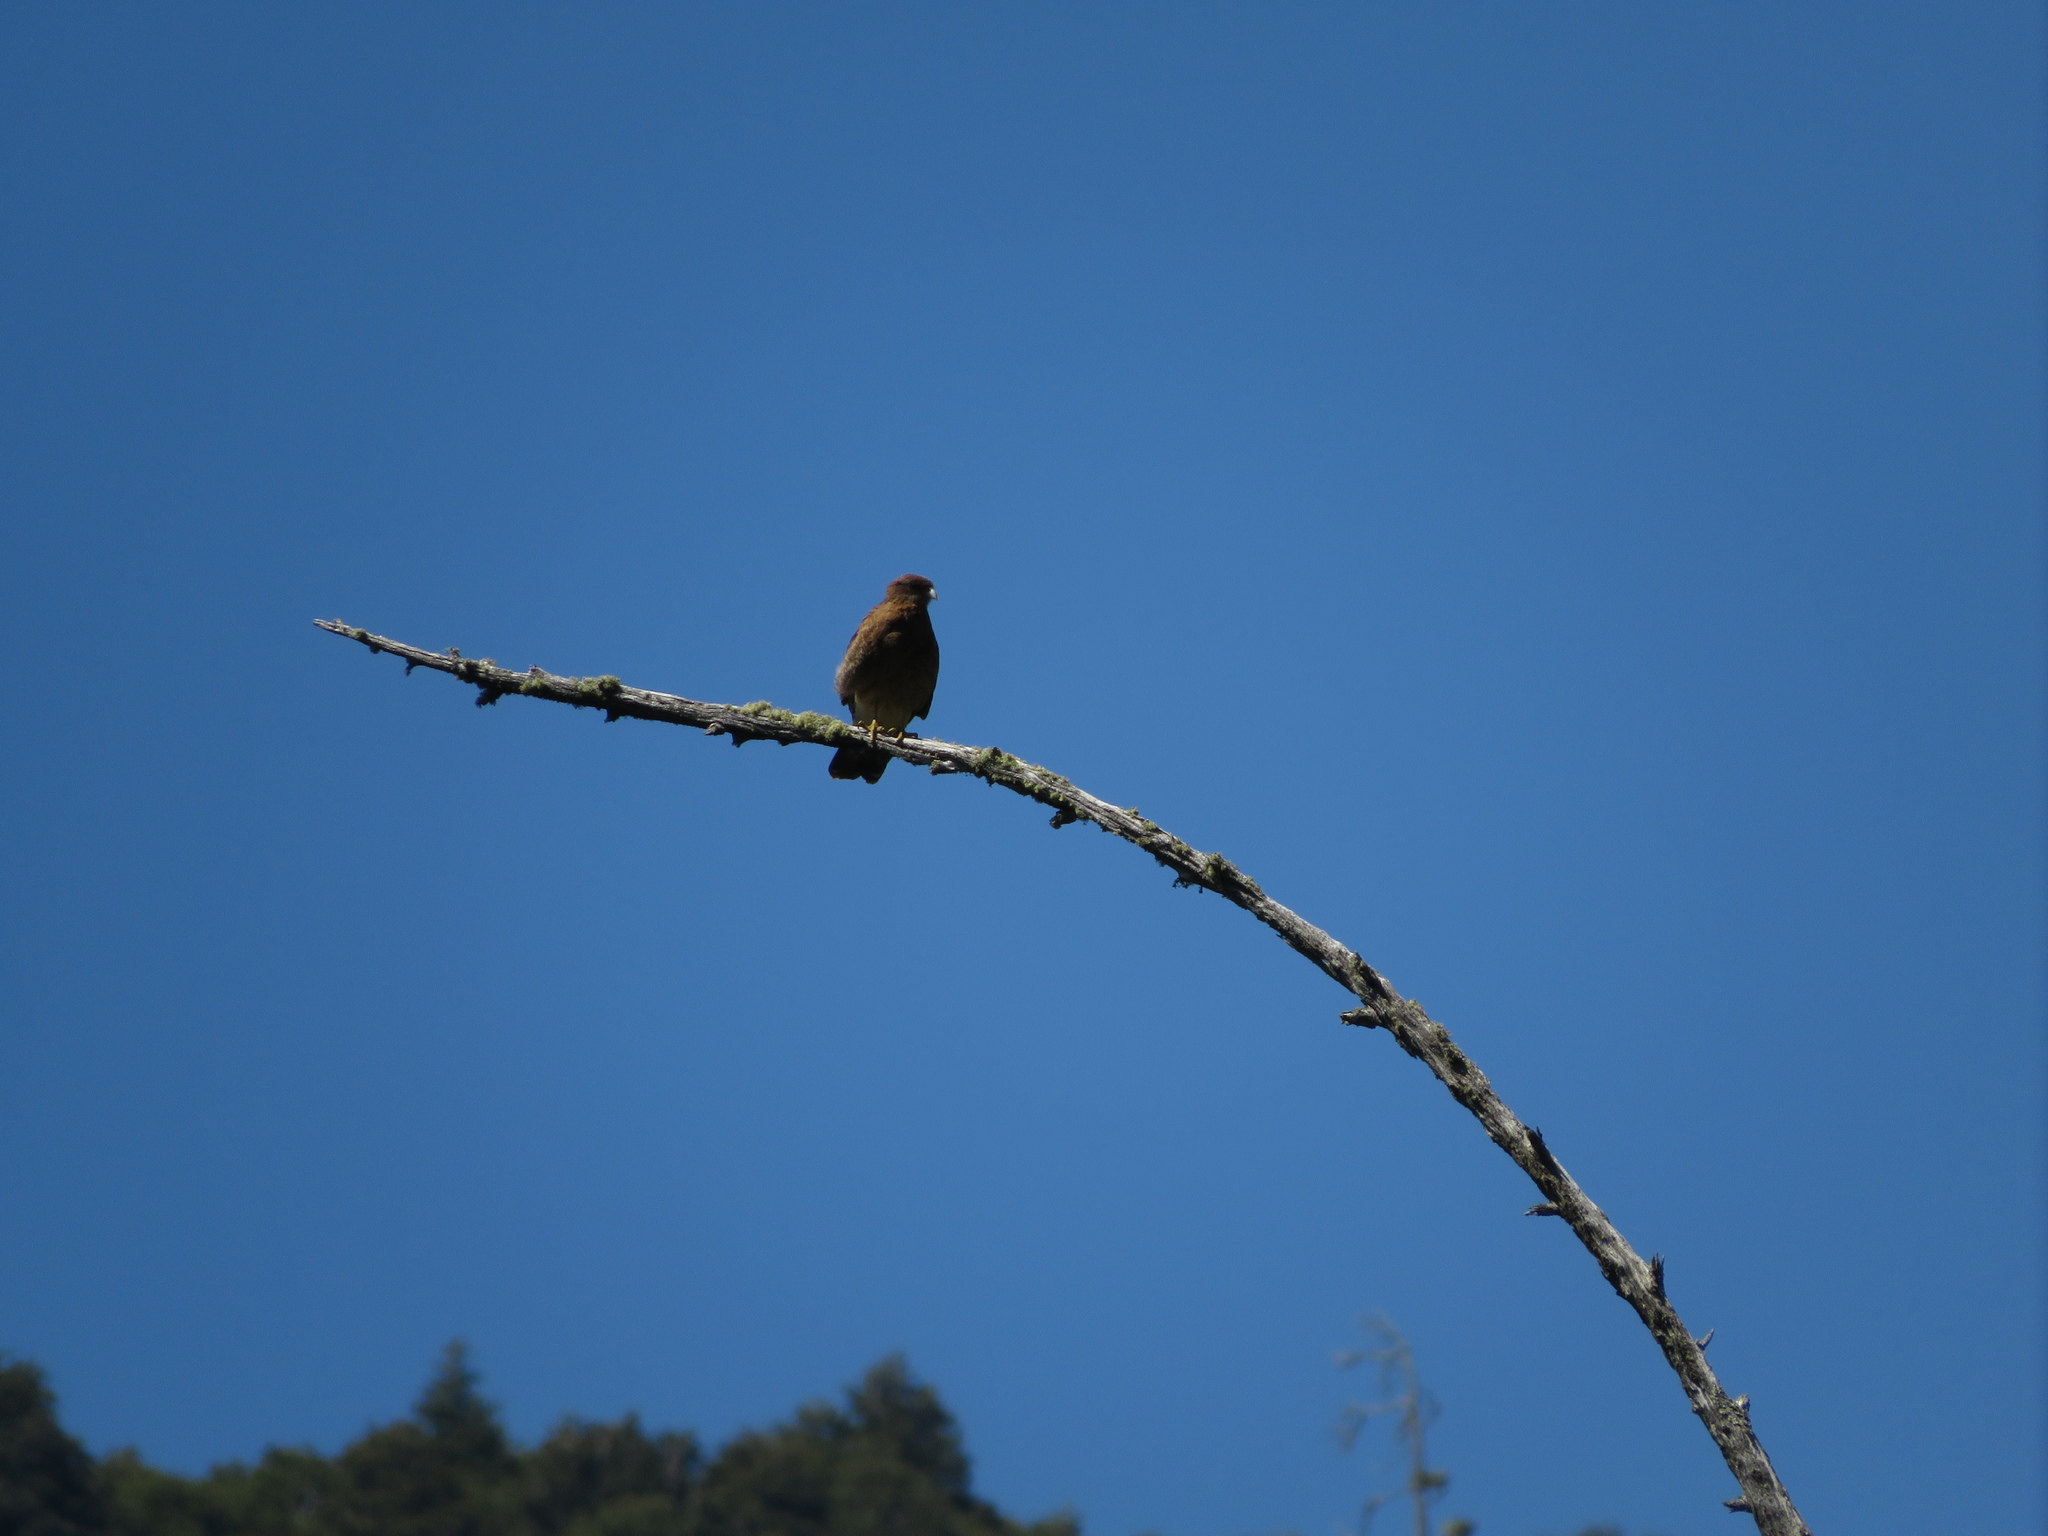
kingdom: Animalia
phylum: Chordata
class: Aves
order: Falconiformes
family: Falconidae
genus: Daptrius
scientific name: Daptrius
